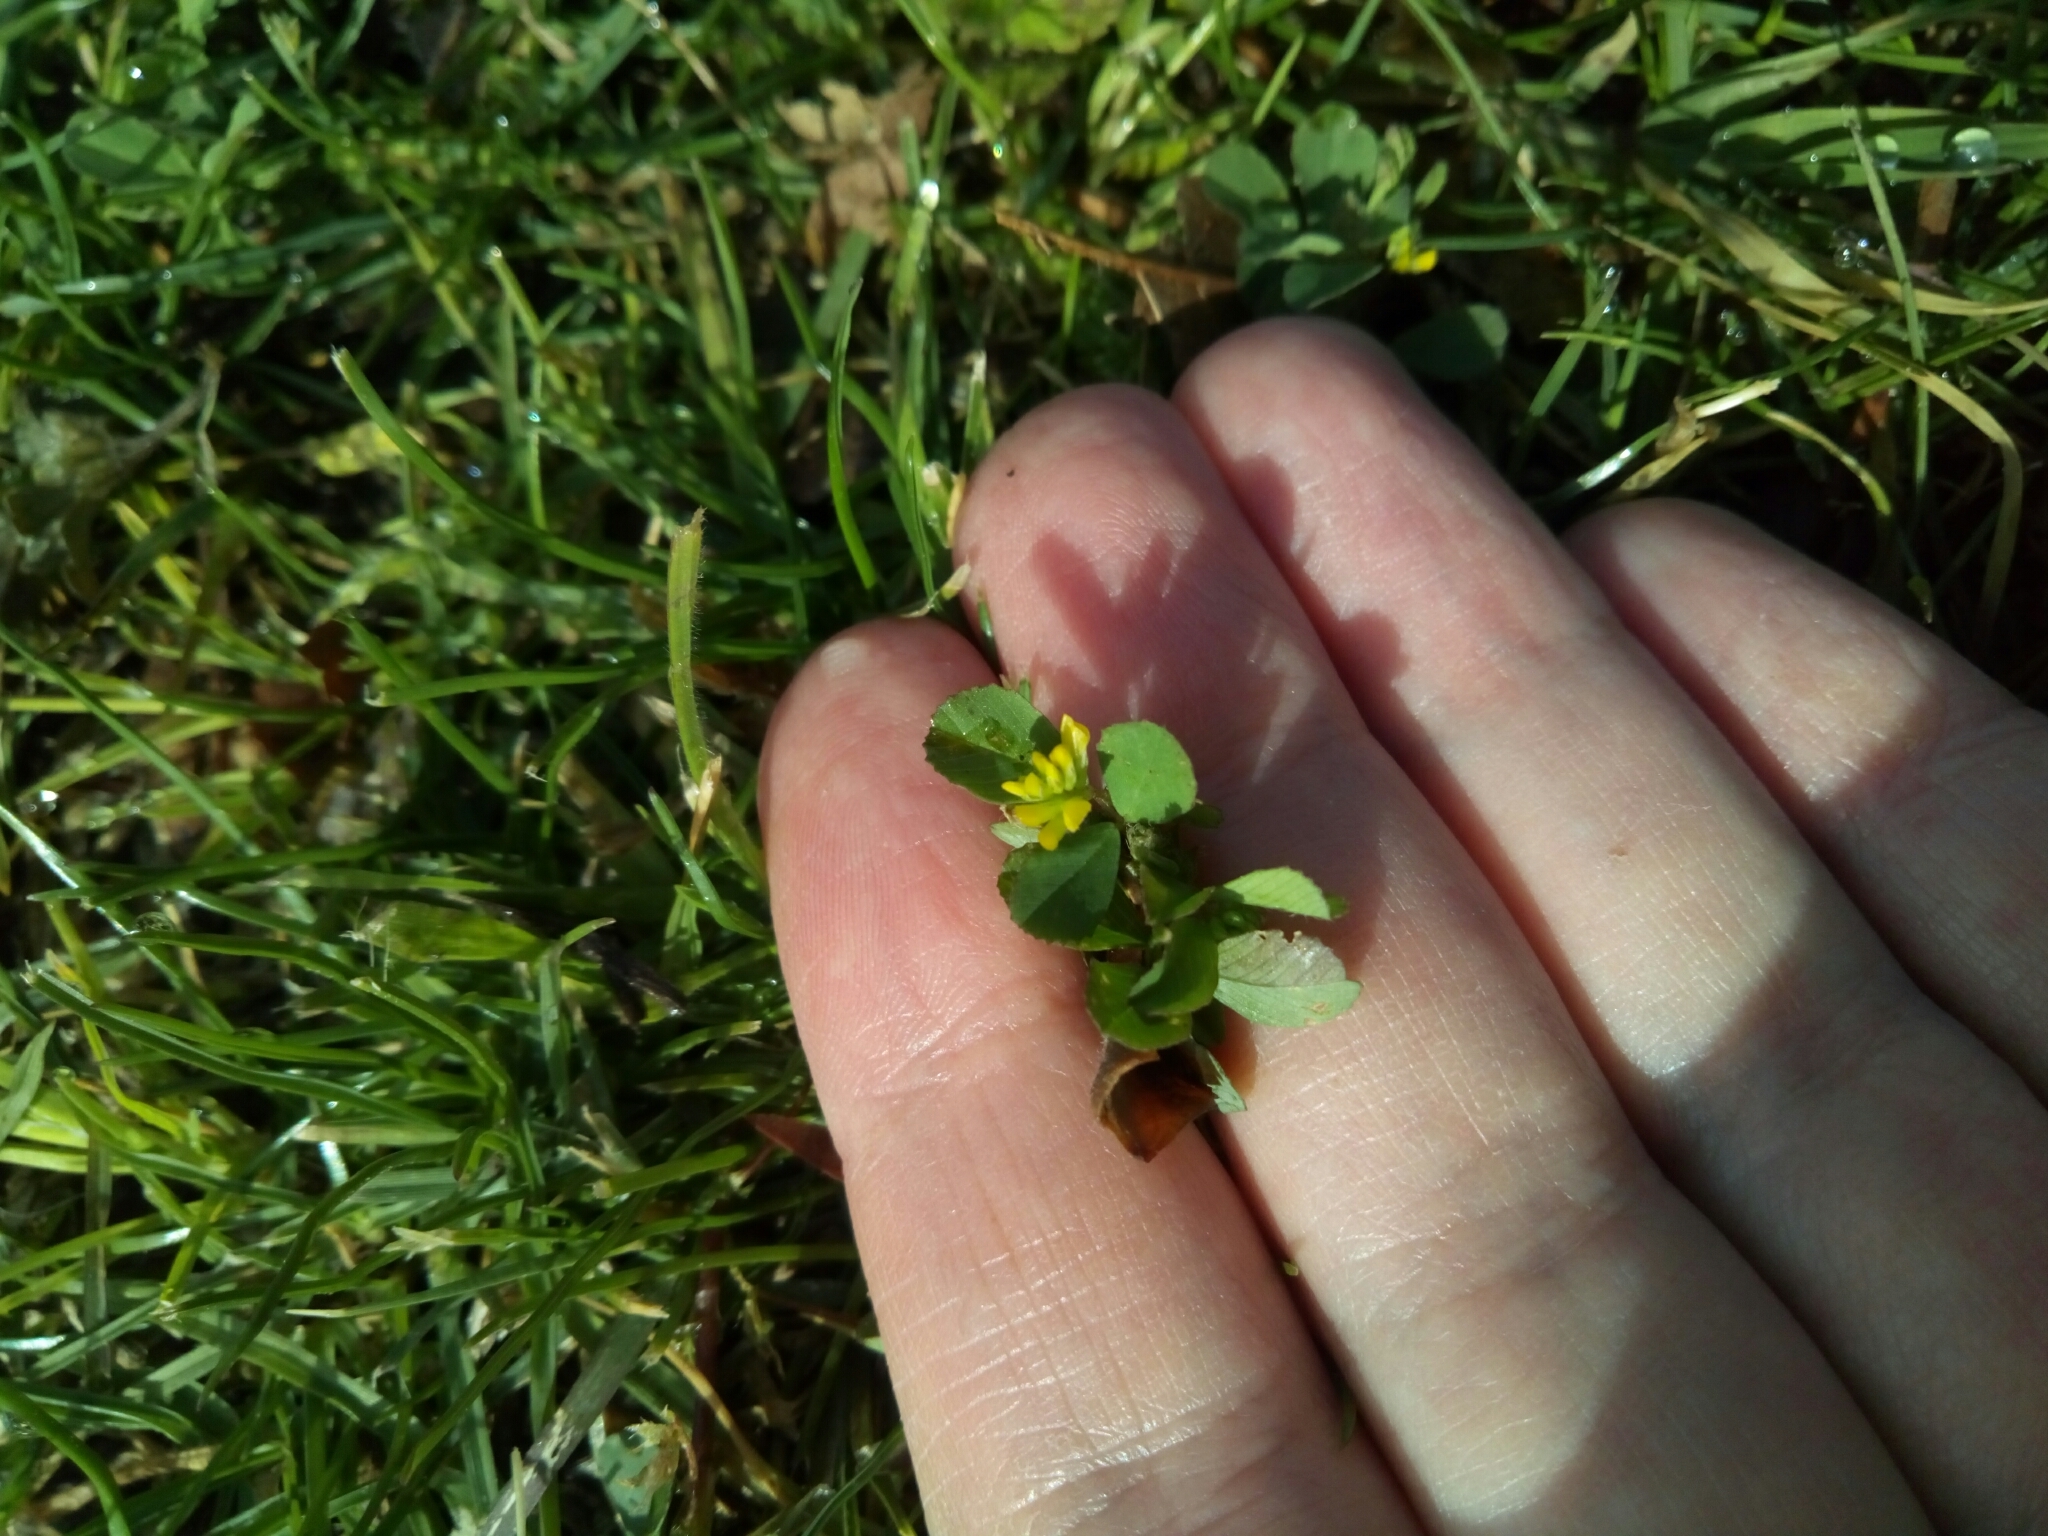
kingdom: Plantae
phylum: Tracheophyta
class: Magnoliopsida
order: Fabales
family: Fabaceae
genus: Trifolium
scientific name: Trifolium dubium
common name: Suckling clover
